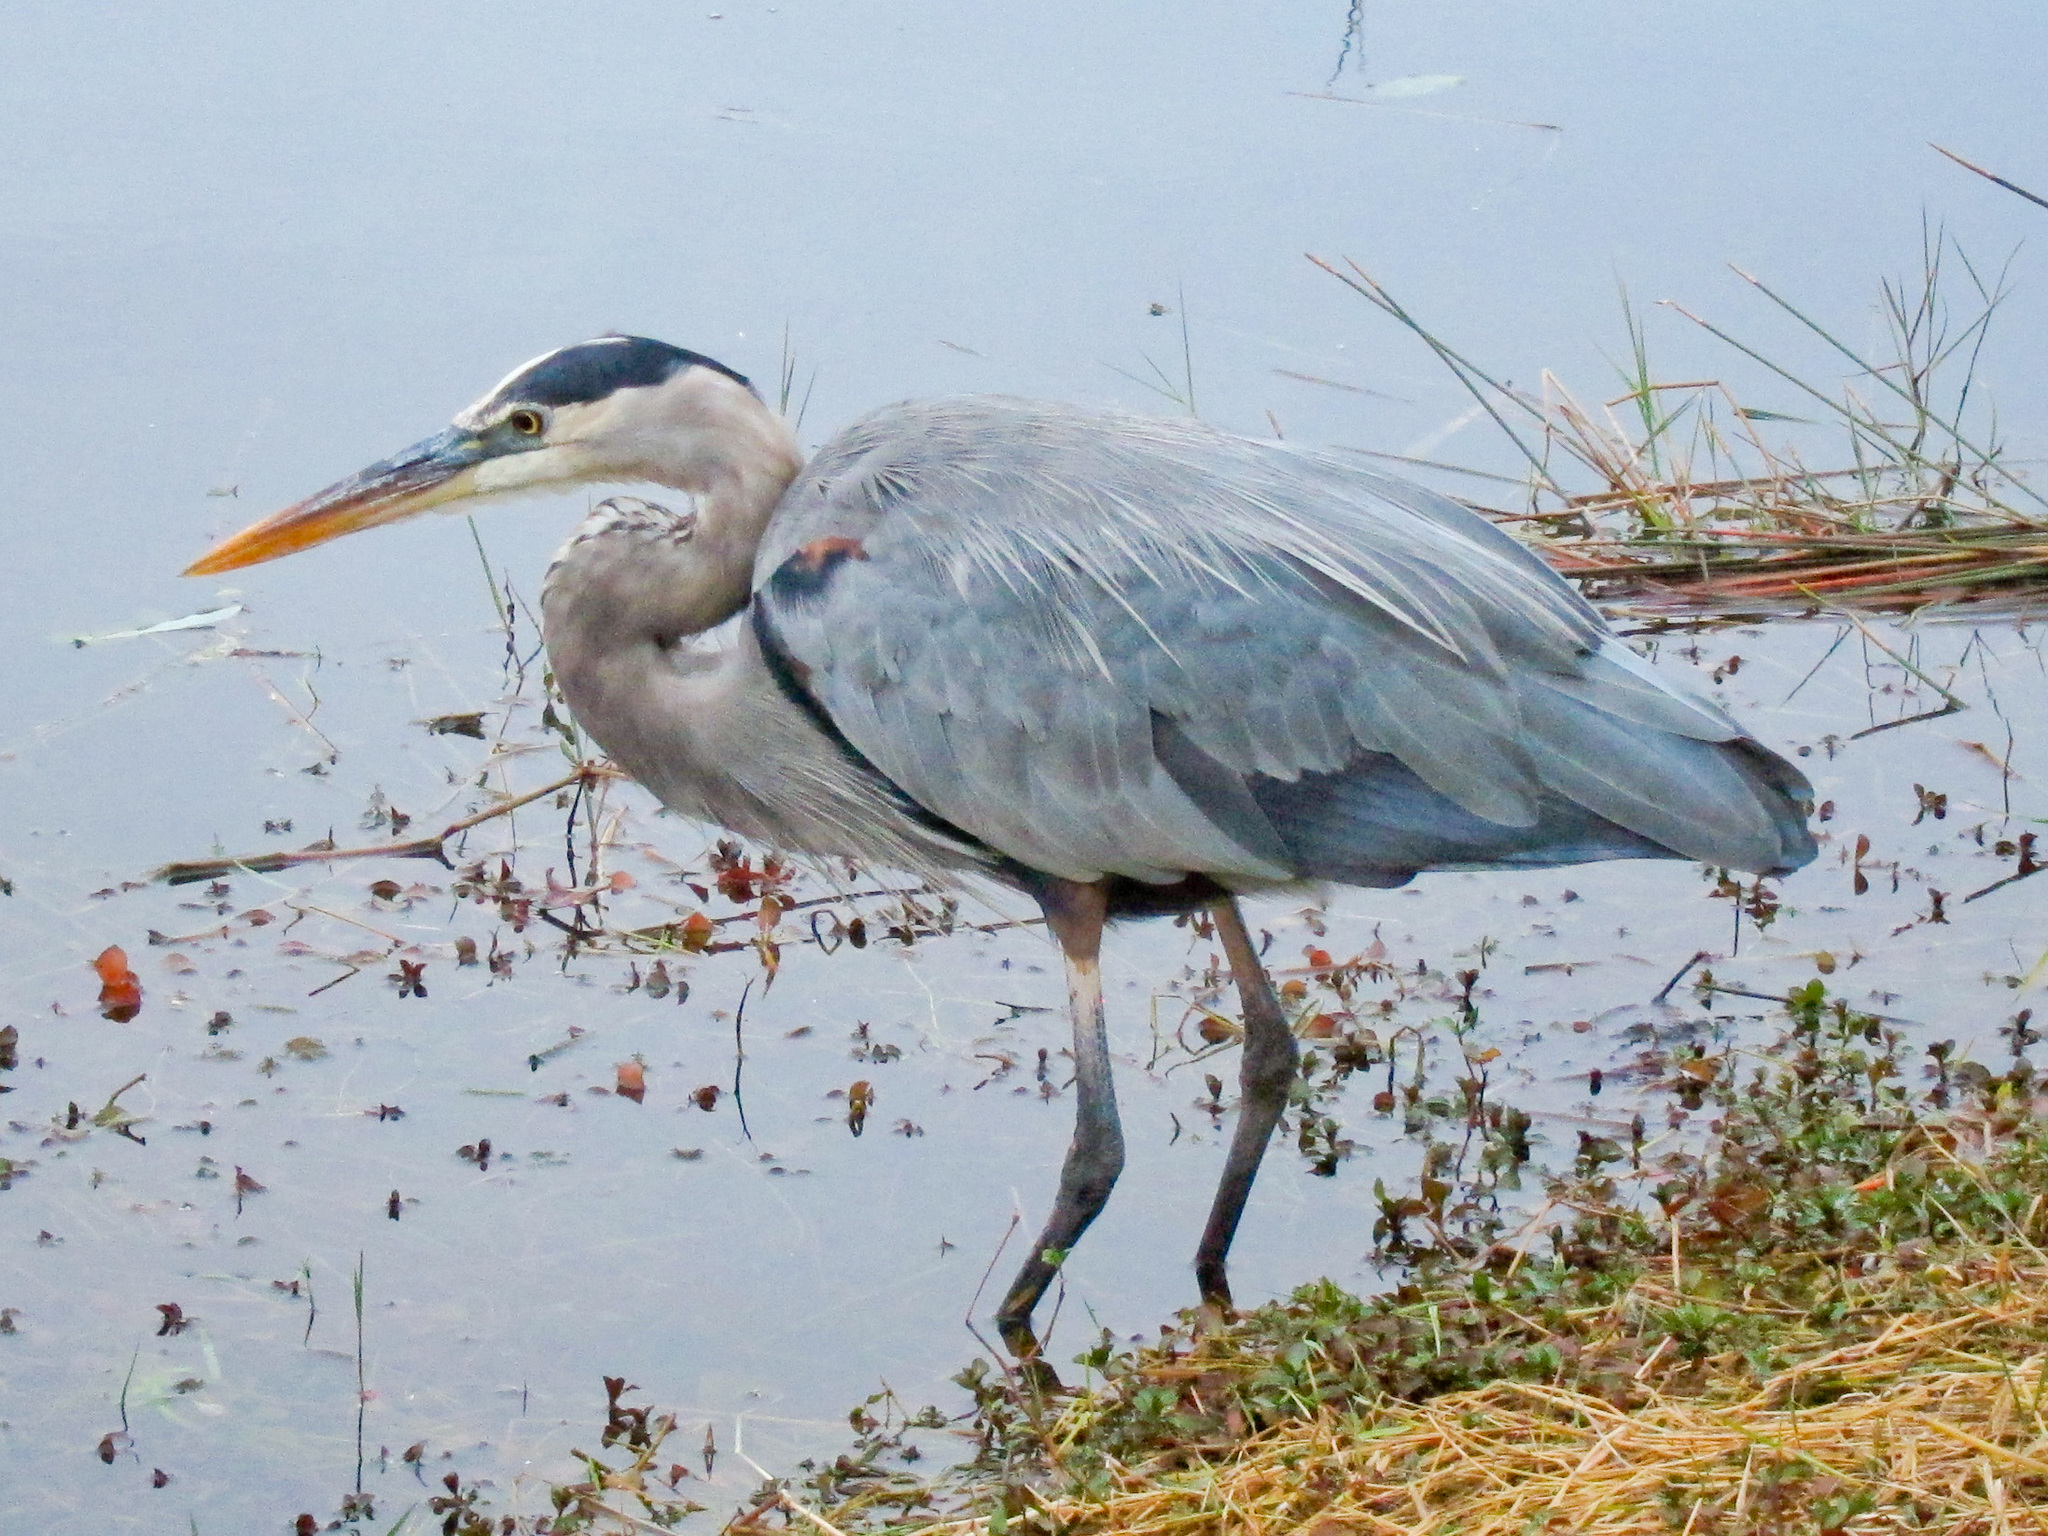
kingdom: Animalia
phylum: Chordata
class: Aves
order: Pelecaniformes
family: Ardeidae
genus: Ardea
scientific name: Ardea herodias
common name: Great blue heron
